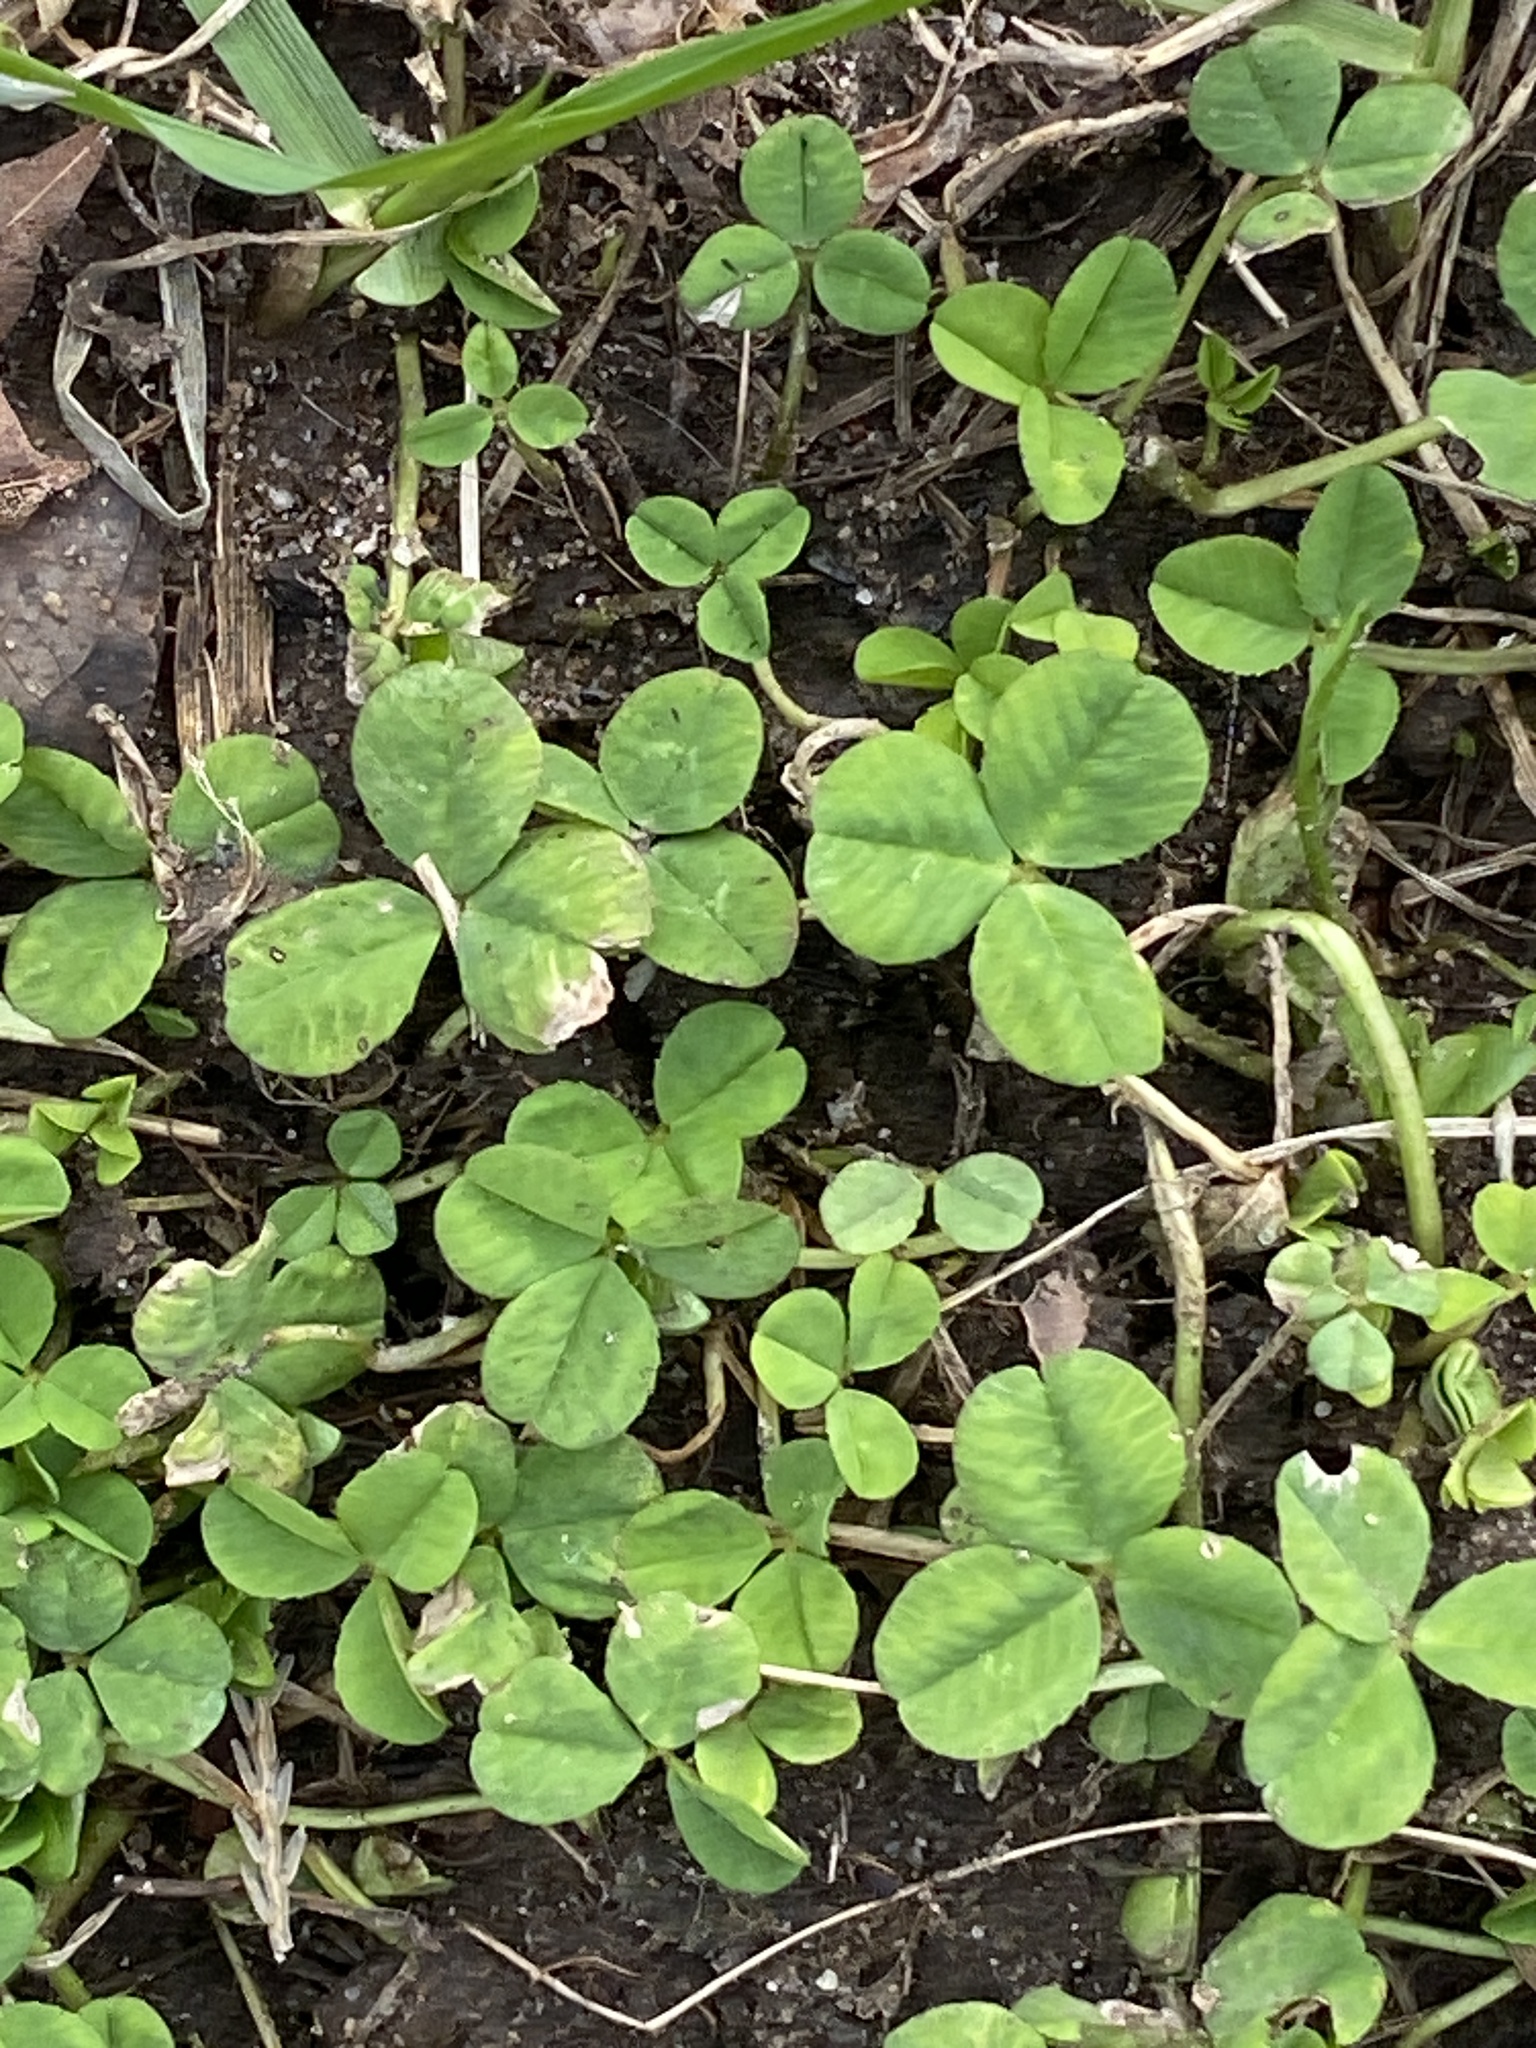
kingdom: Plantae
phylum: Tracheophyta
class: Magnoliopsida
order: Fabales
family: Fabaceae
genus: Trifolium
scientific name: Trifolium repens
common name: White clover
